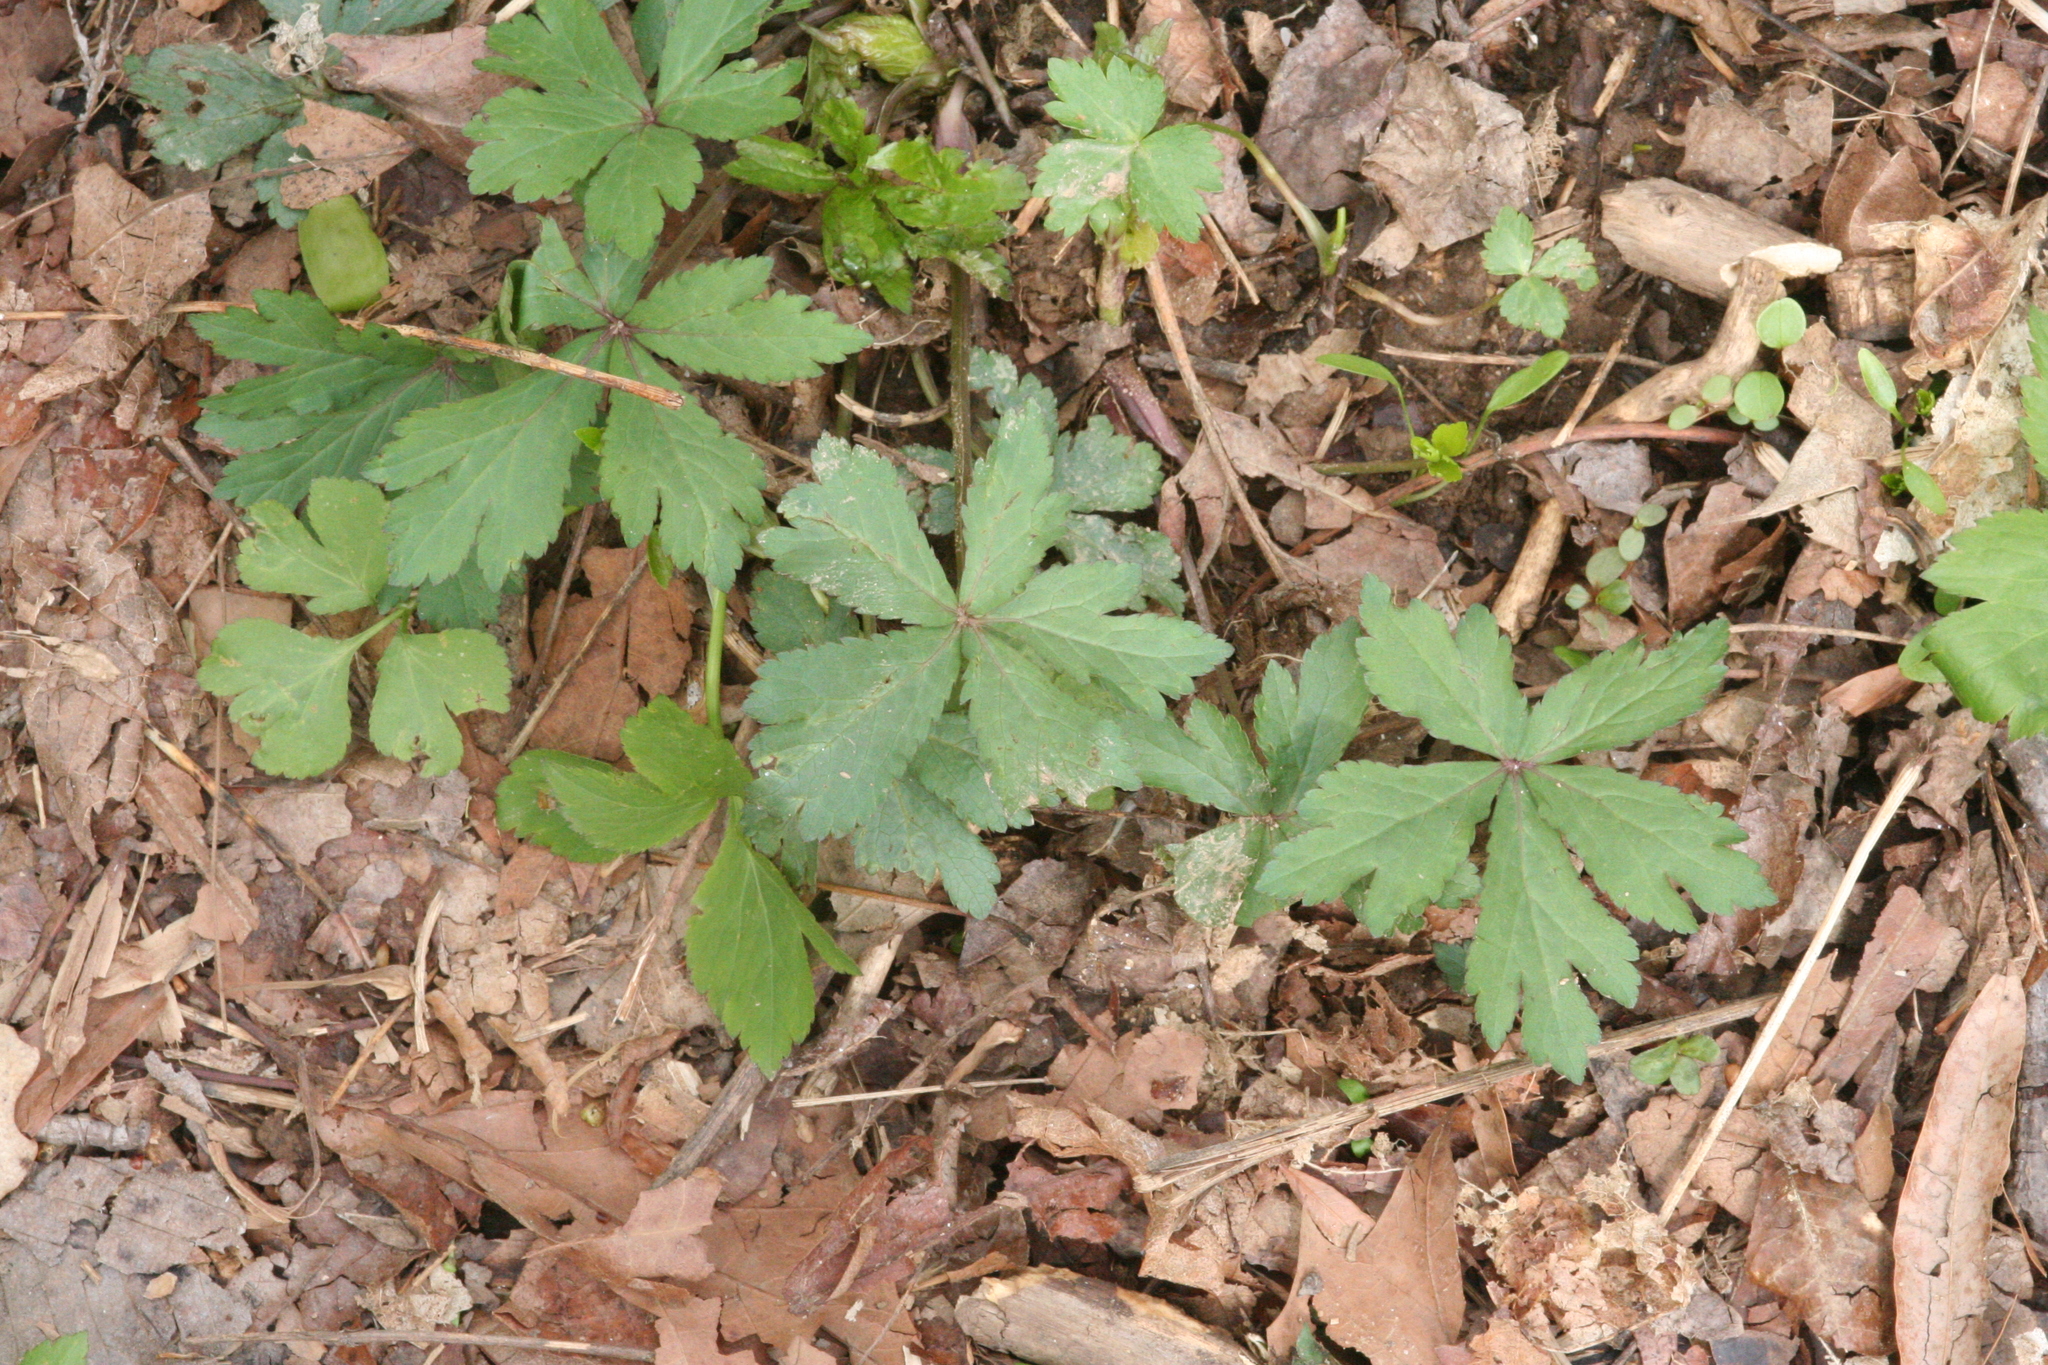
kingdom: Plantae
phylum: Tracheophyta
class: Magnoliopsida
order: Apiales
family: Apiaceae
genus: Sanicula
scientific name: Sanicula odorata
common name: Cluster sanicle
